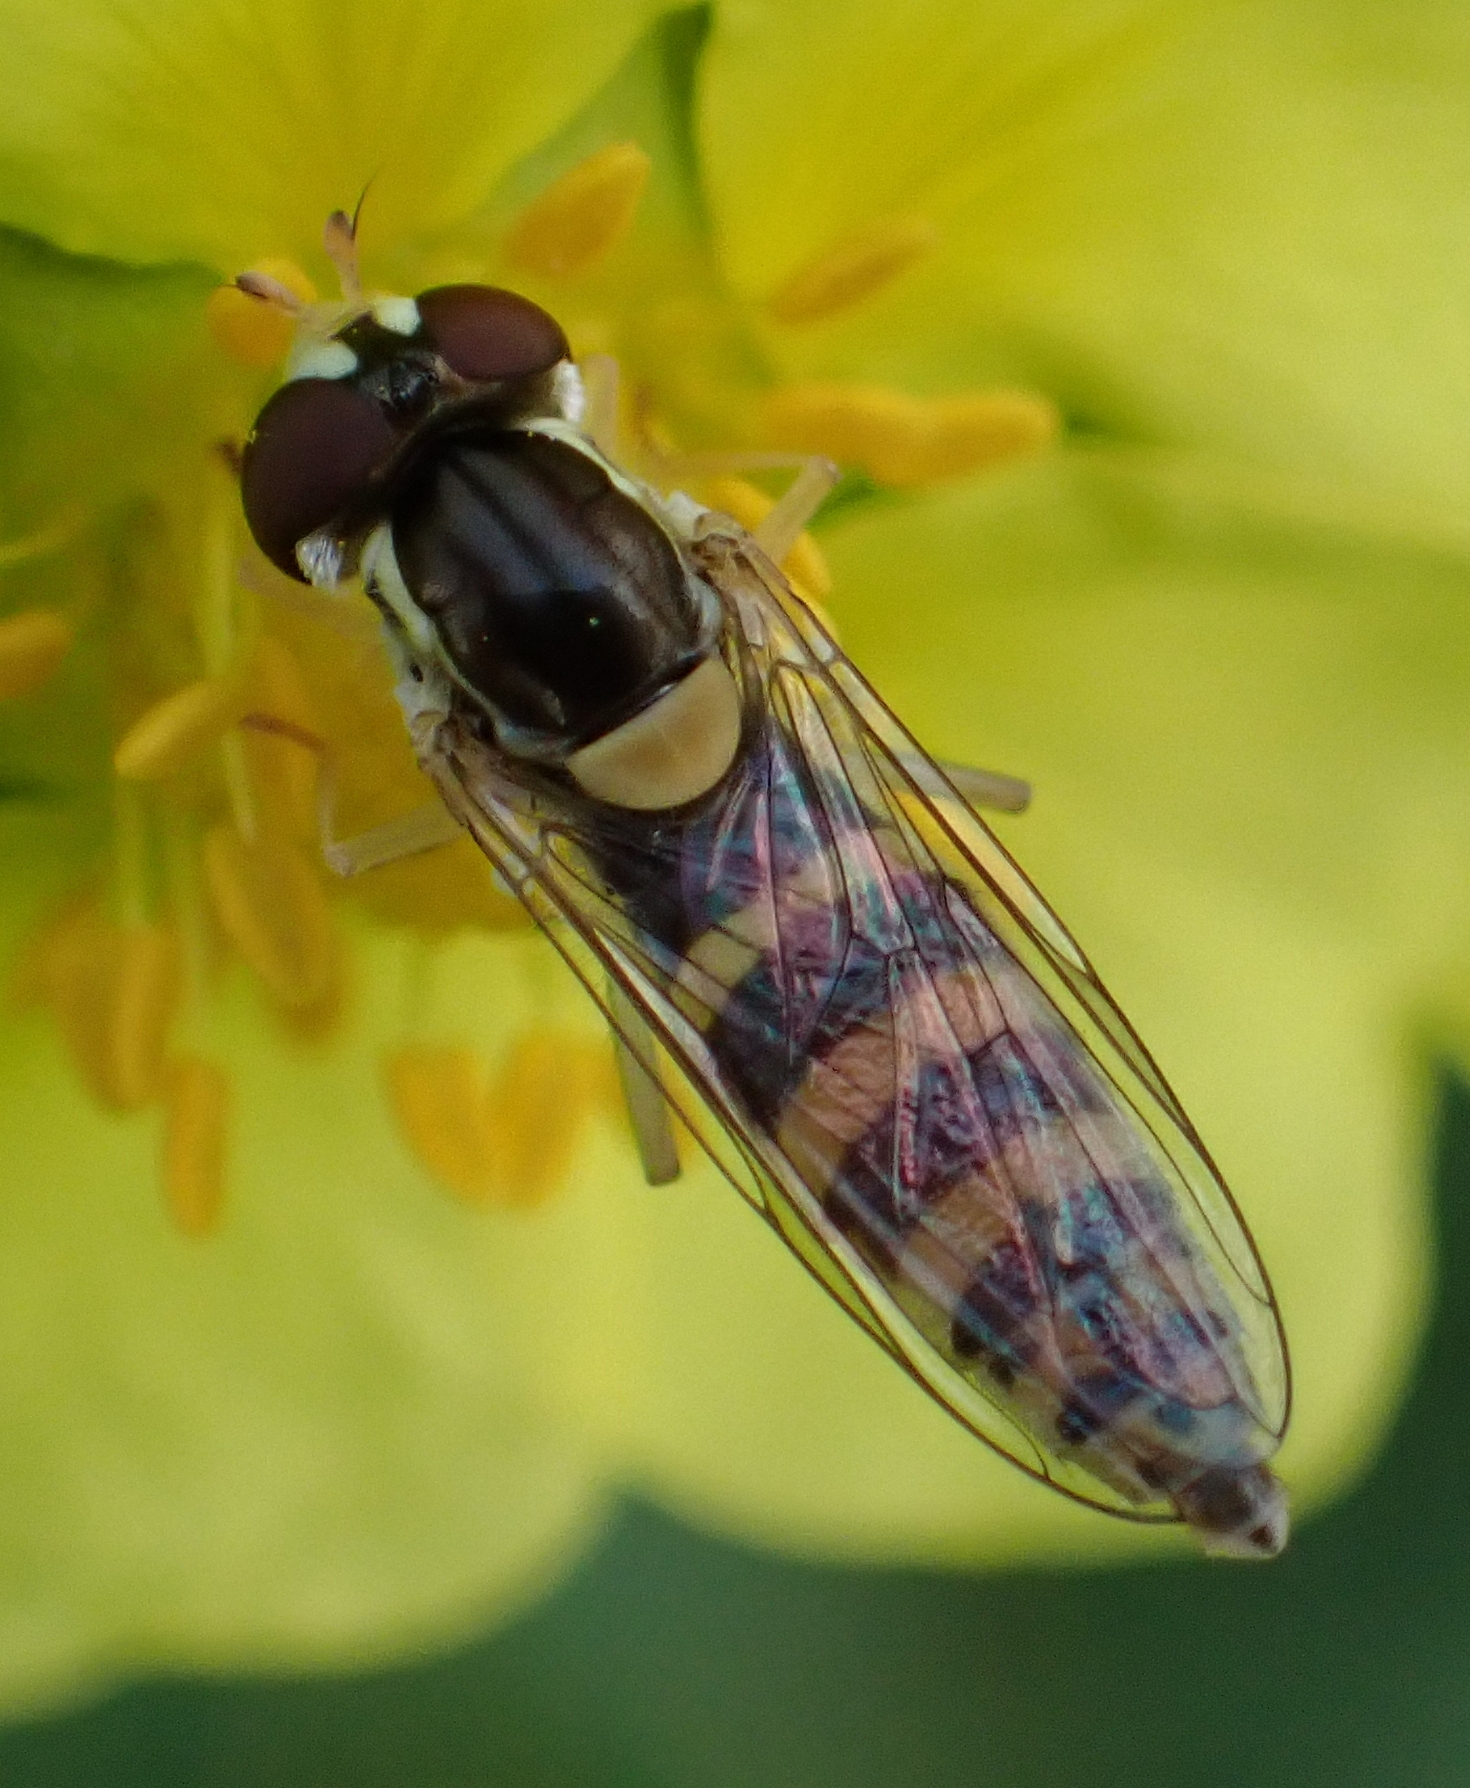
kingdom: Animalia
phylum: Arthropoda
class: Insecta
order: Diptera
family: Syrphidae
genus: Sphaerophoria
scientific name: Sphaerophoria
